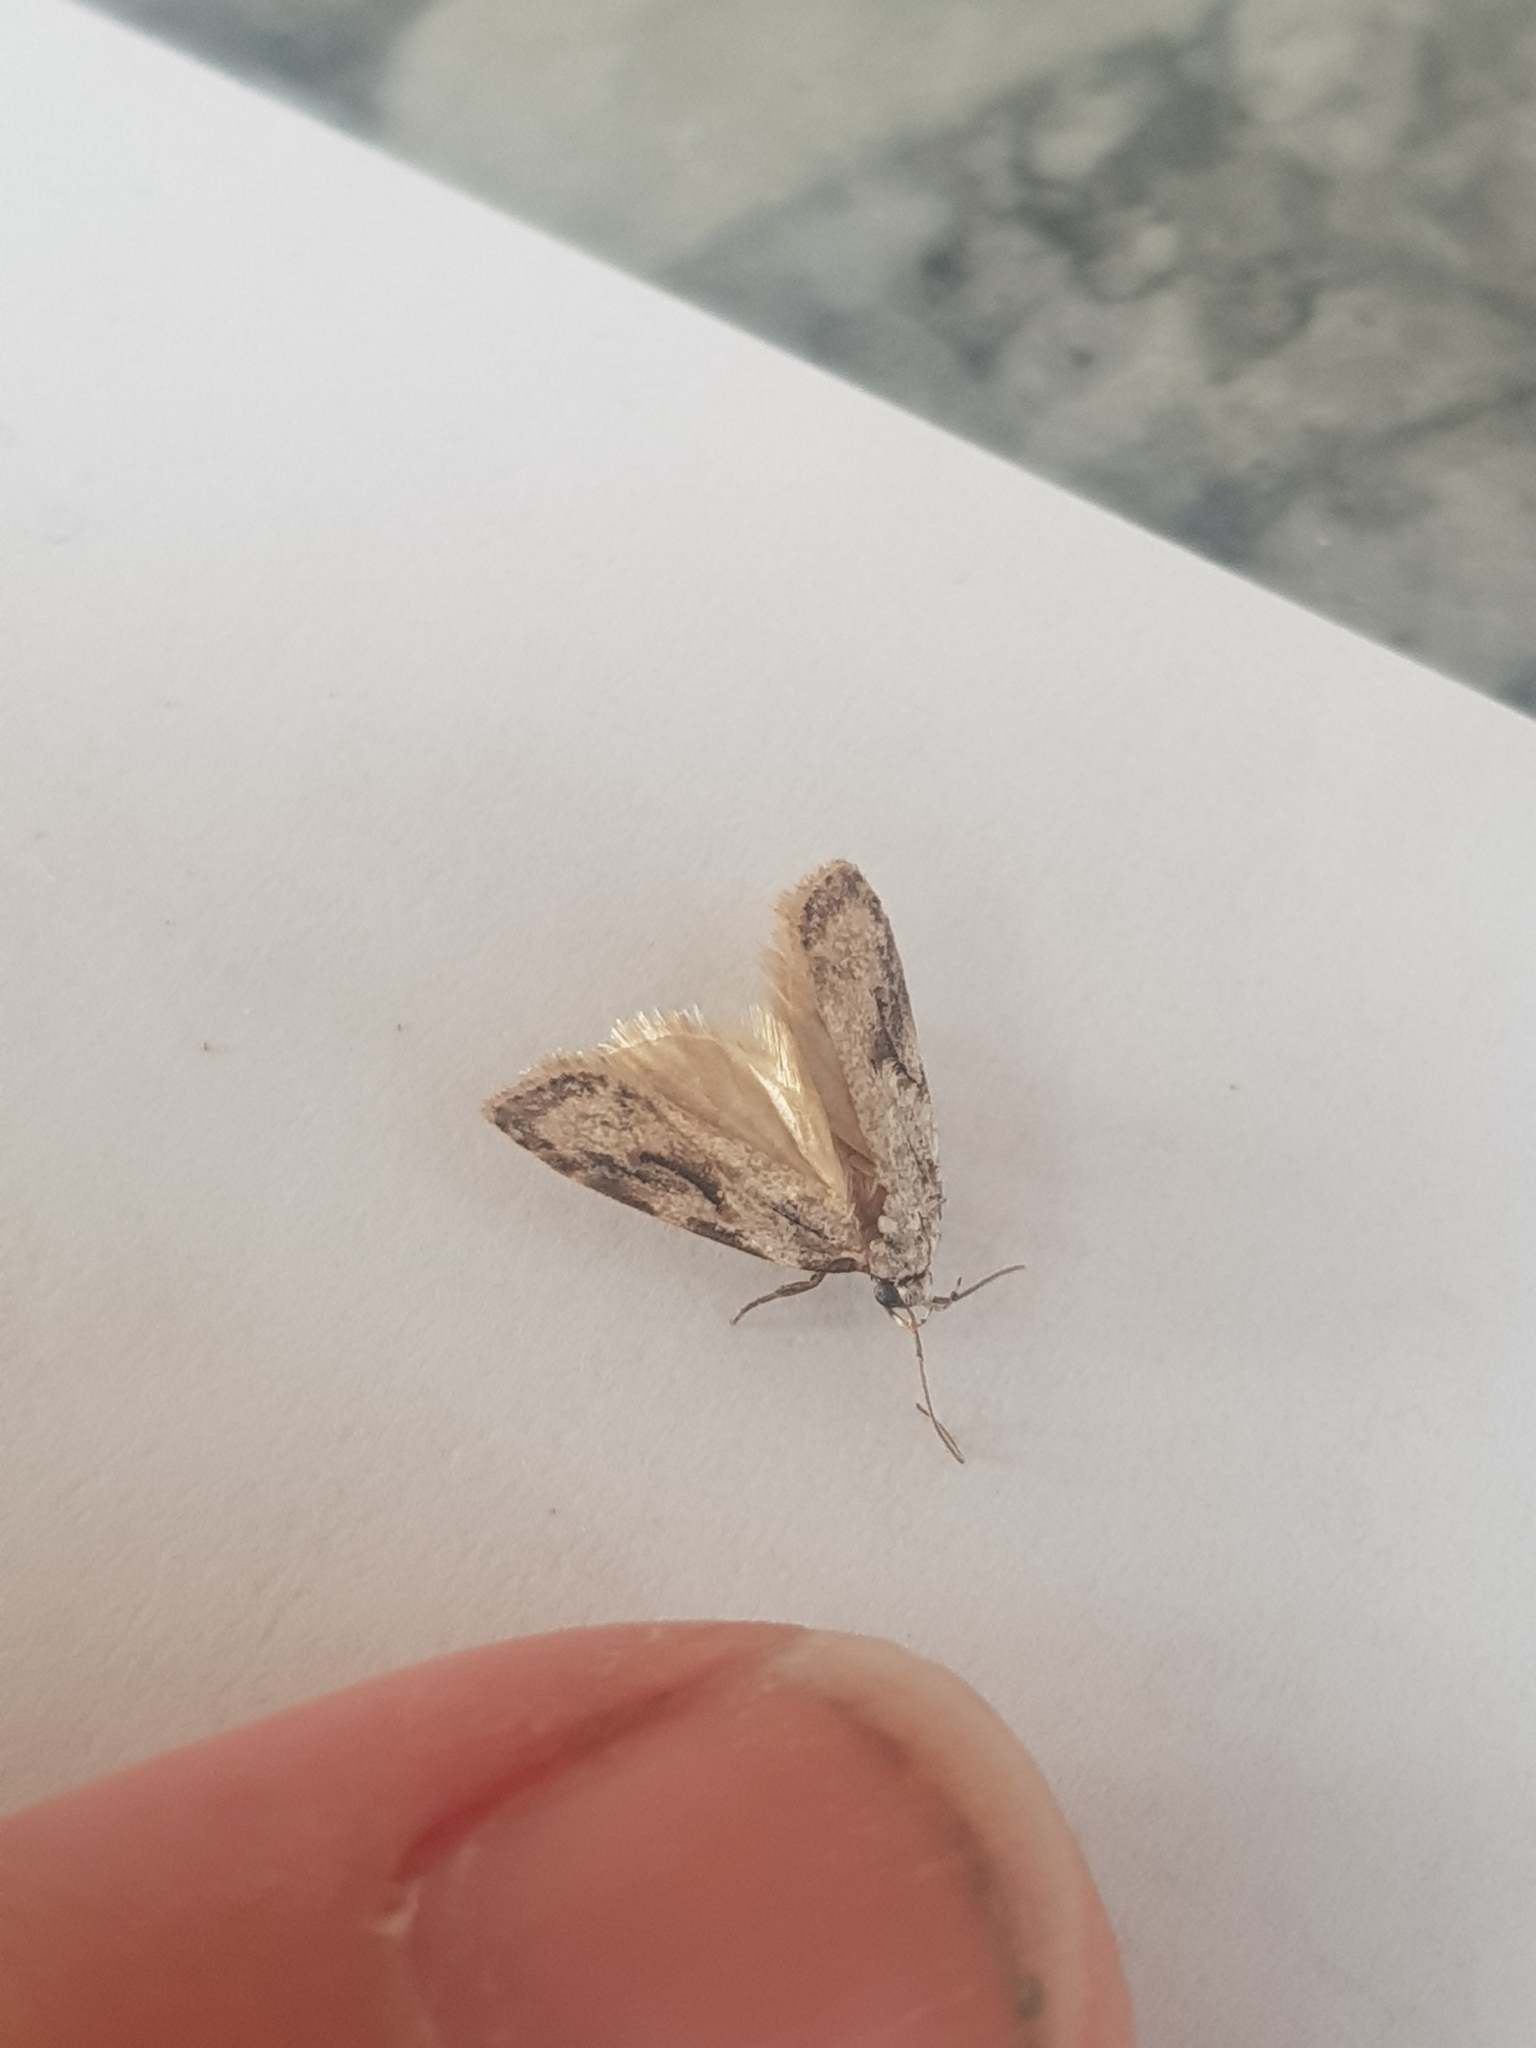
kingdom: Animalia
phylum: Arthropoda
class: Insecta
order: Lepidoptera
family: Oecophoridae
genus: Izatha
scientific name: Izatha mesoschista
